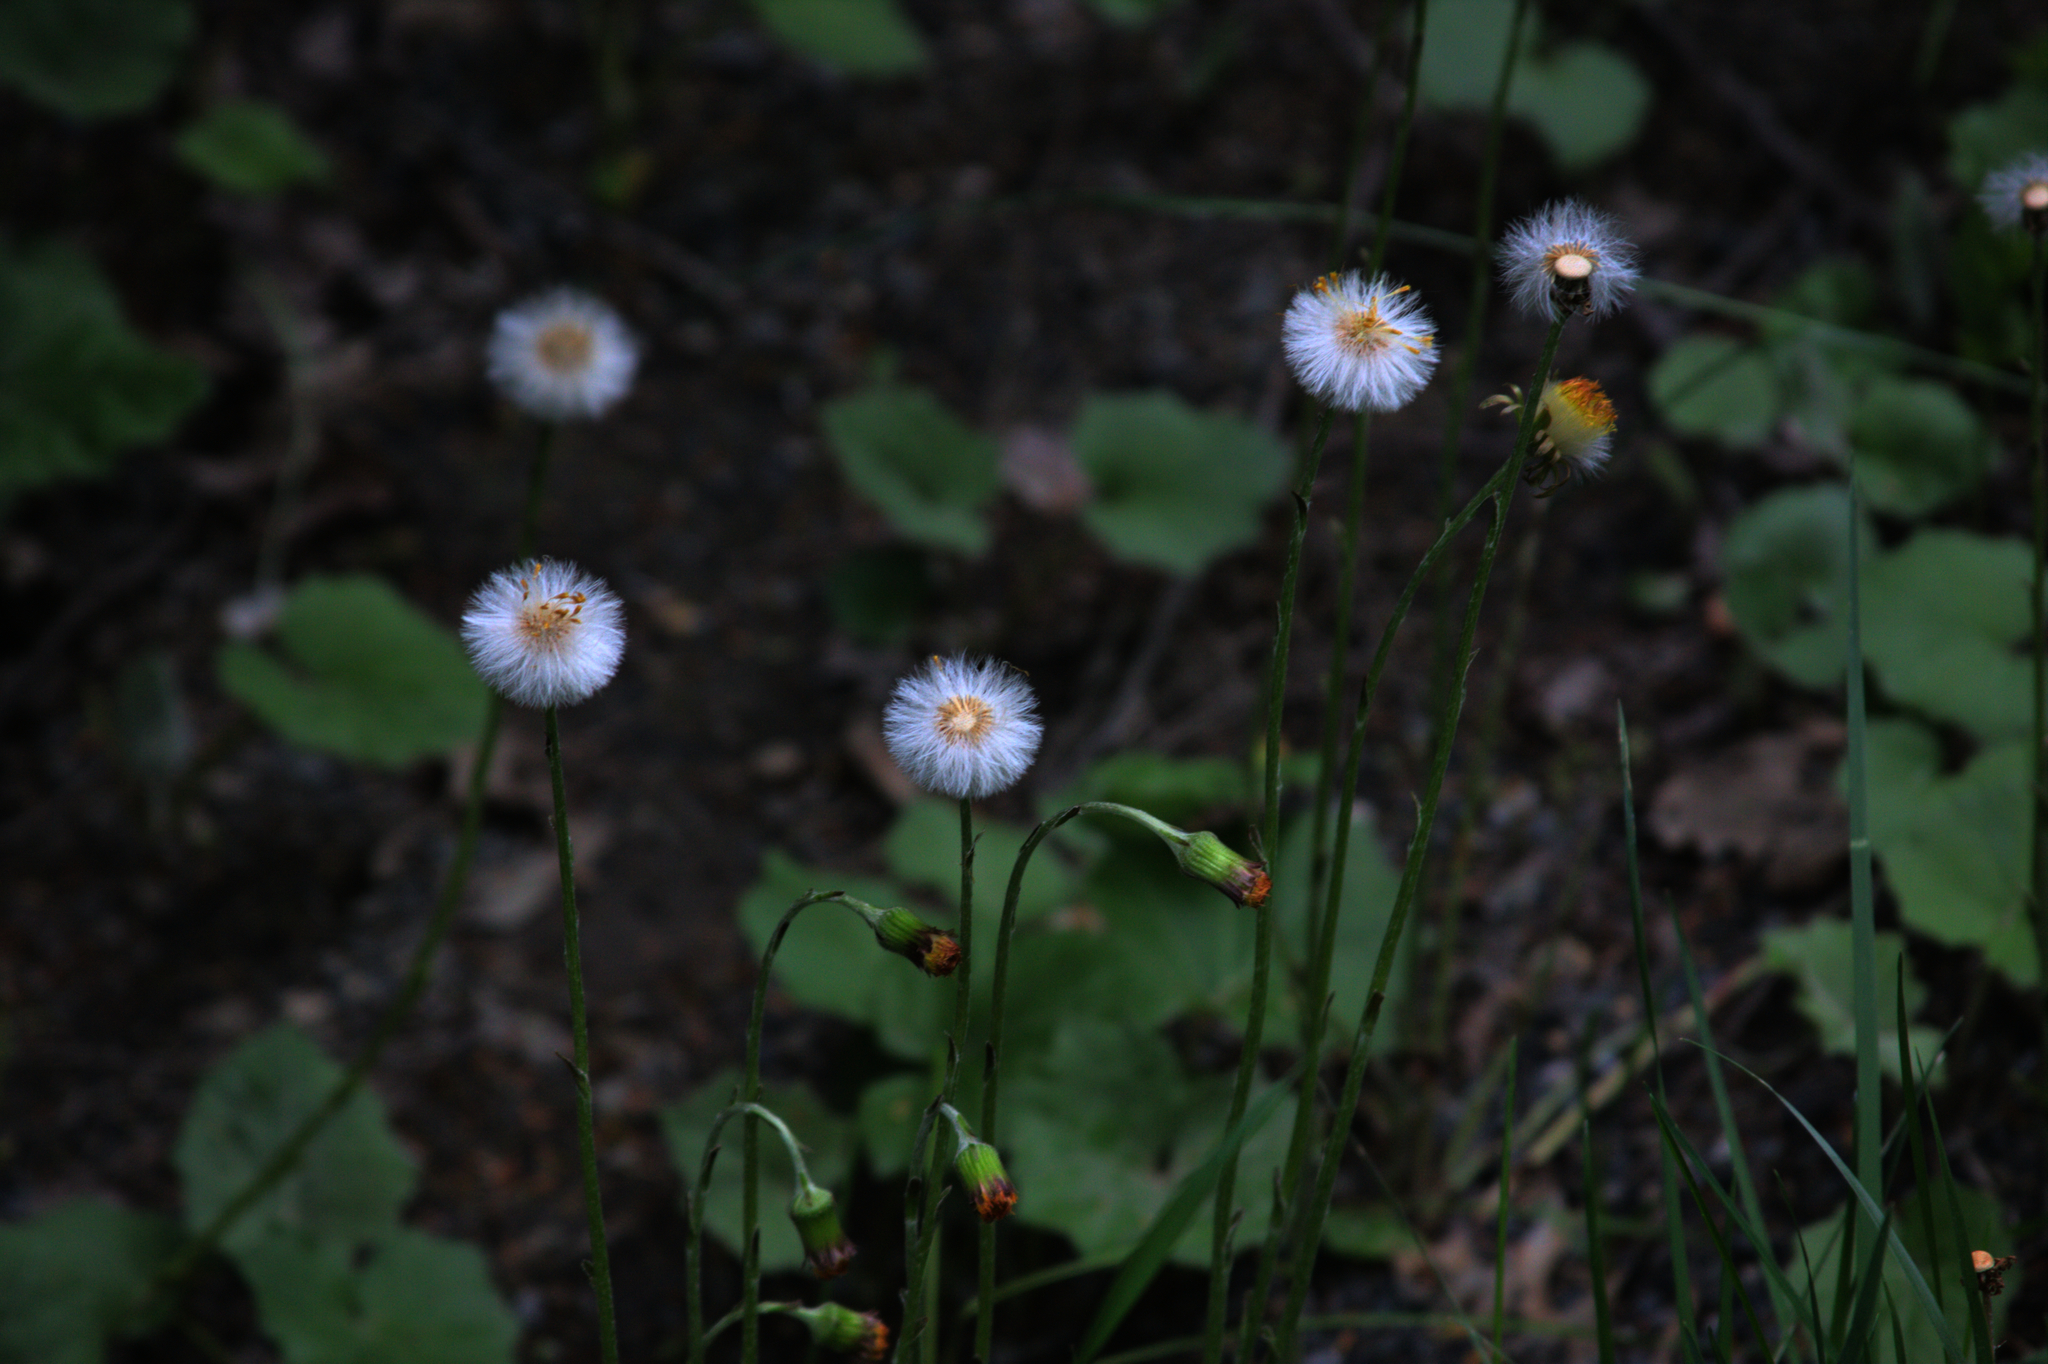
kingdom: Plantae
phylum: Tracheophyta
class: Magnoliopsida
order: Asterales
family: Asteraceae
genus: Tussilago
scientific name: Tussilago farfara
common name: Coltsfoot
